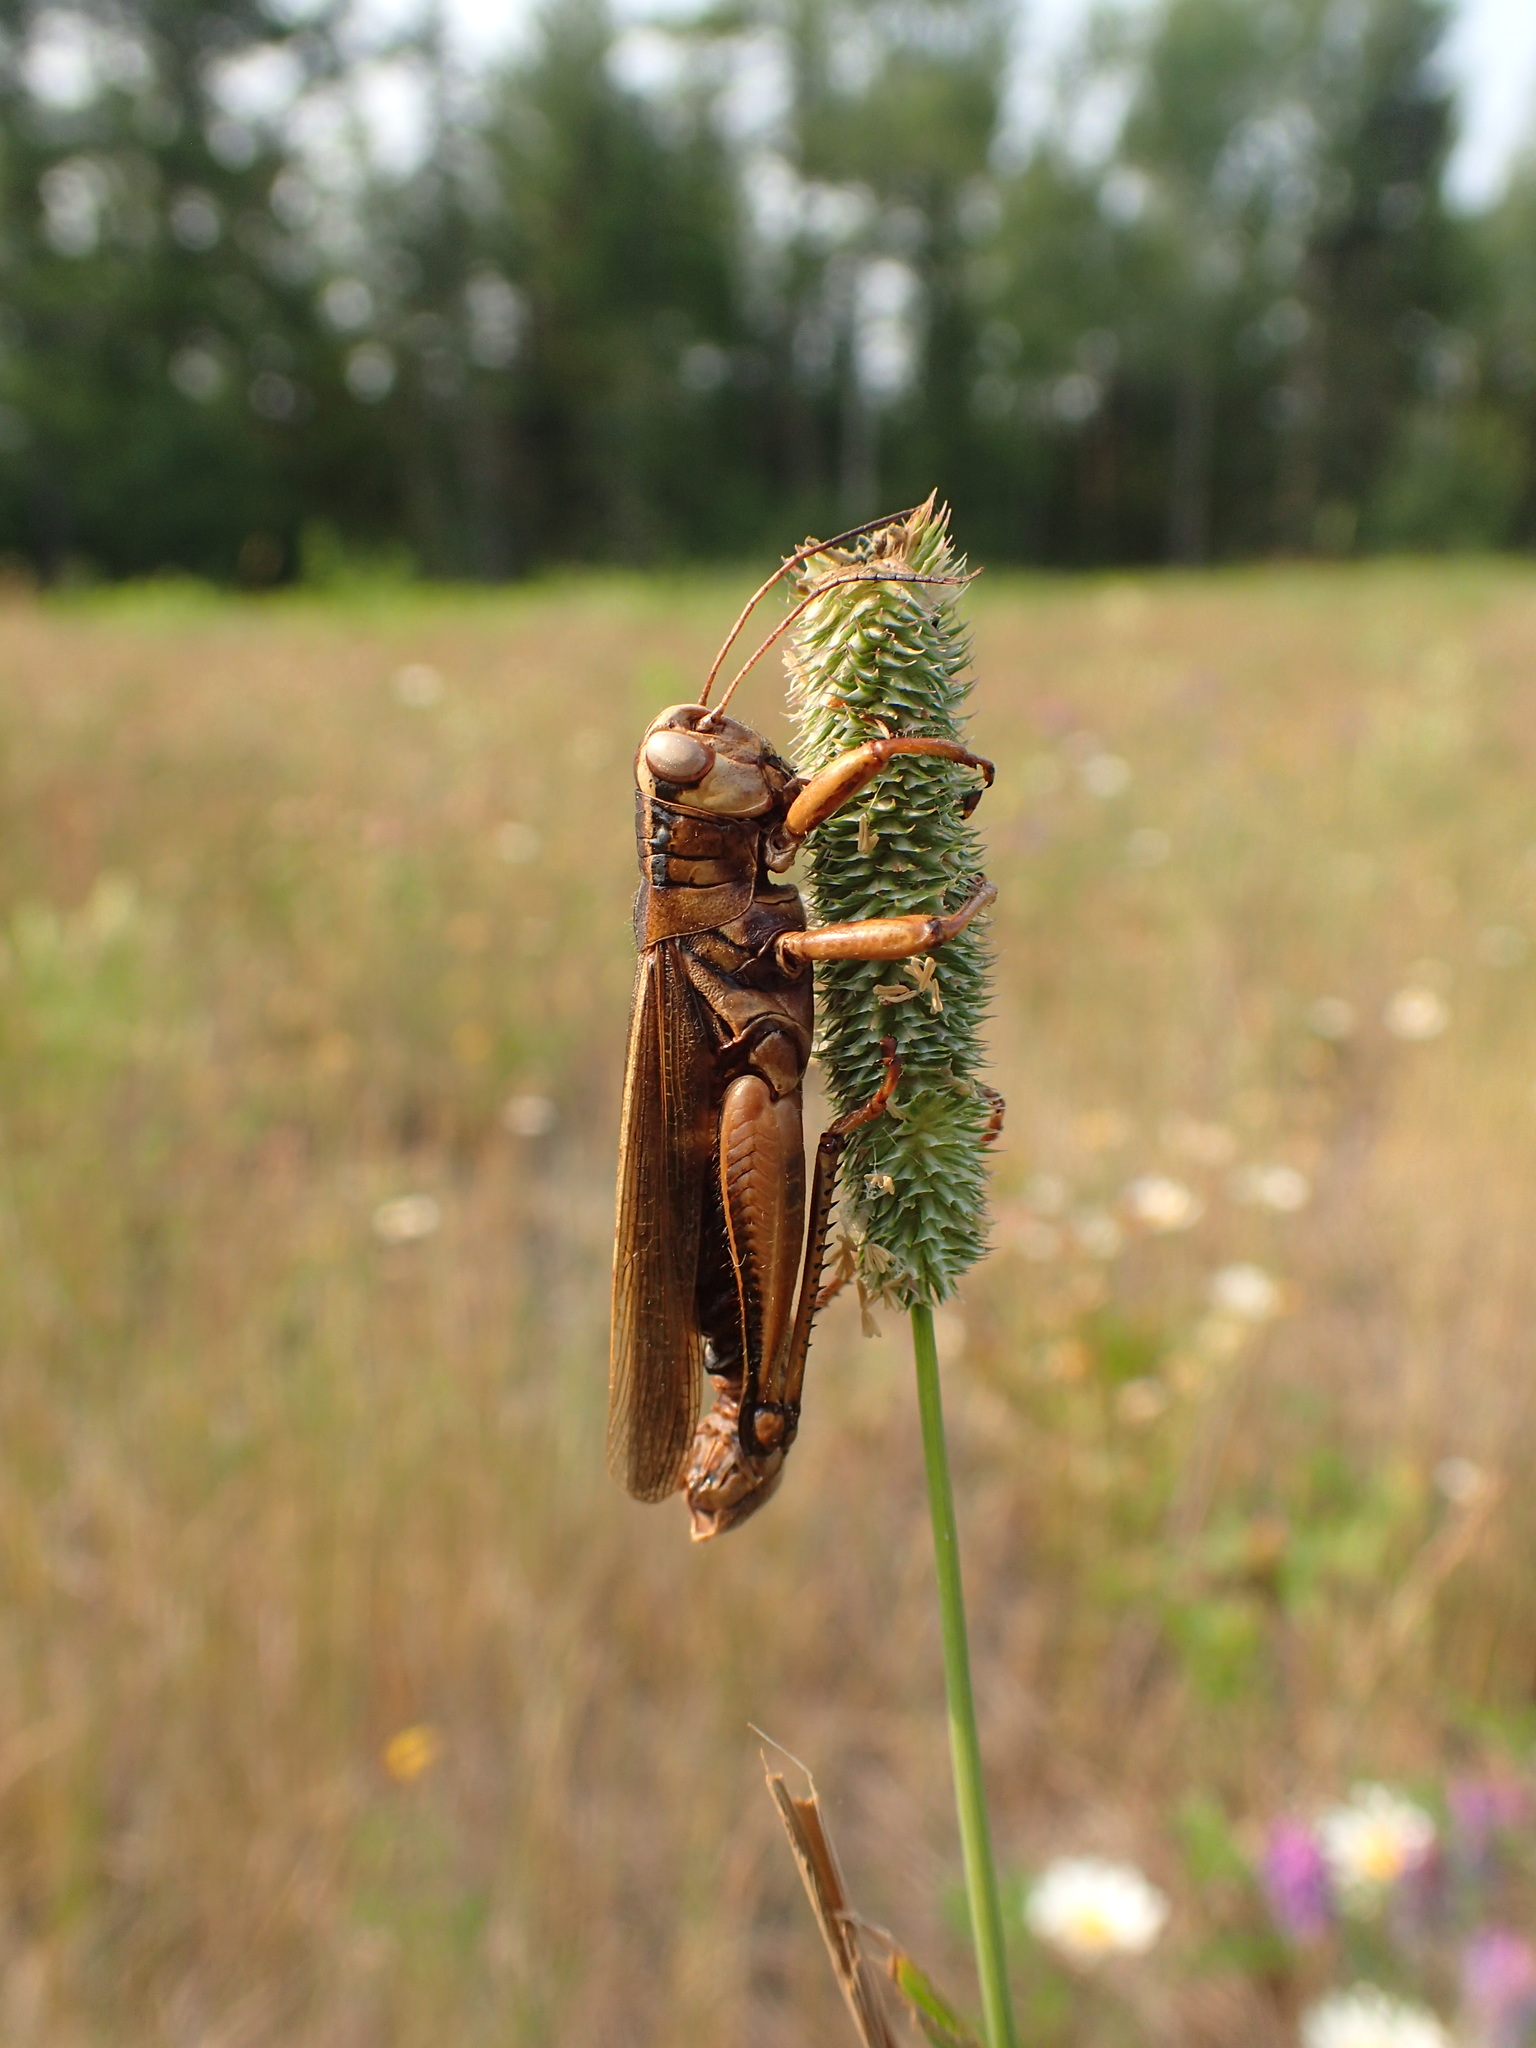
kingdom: Fungi
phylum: Entomophthoromycota
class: Entomophthoromycetes
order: Entomophthorales
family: Entomophthoraceae
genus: Entomophaga
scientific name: Entomophaga grylli
